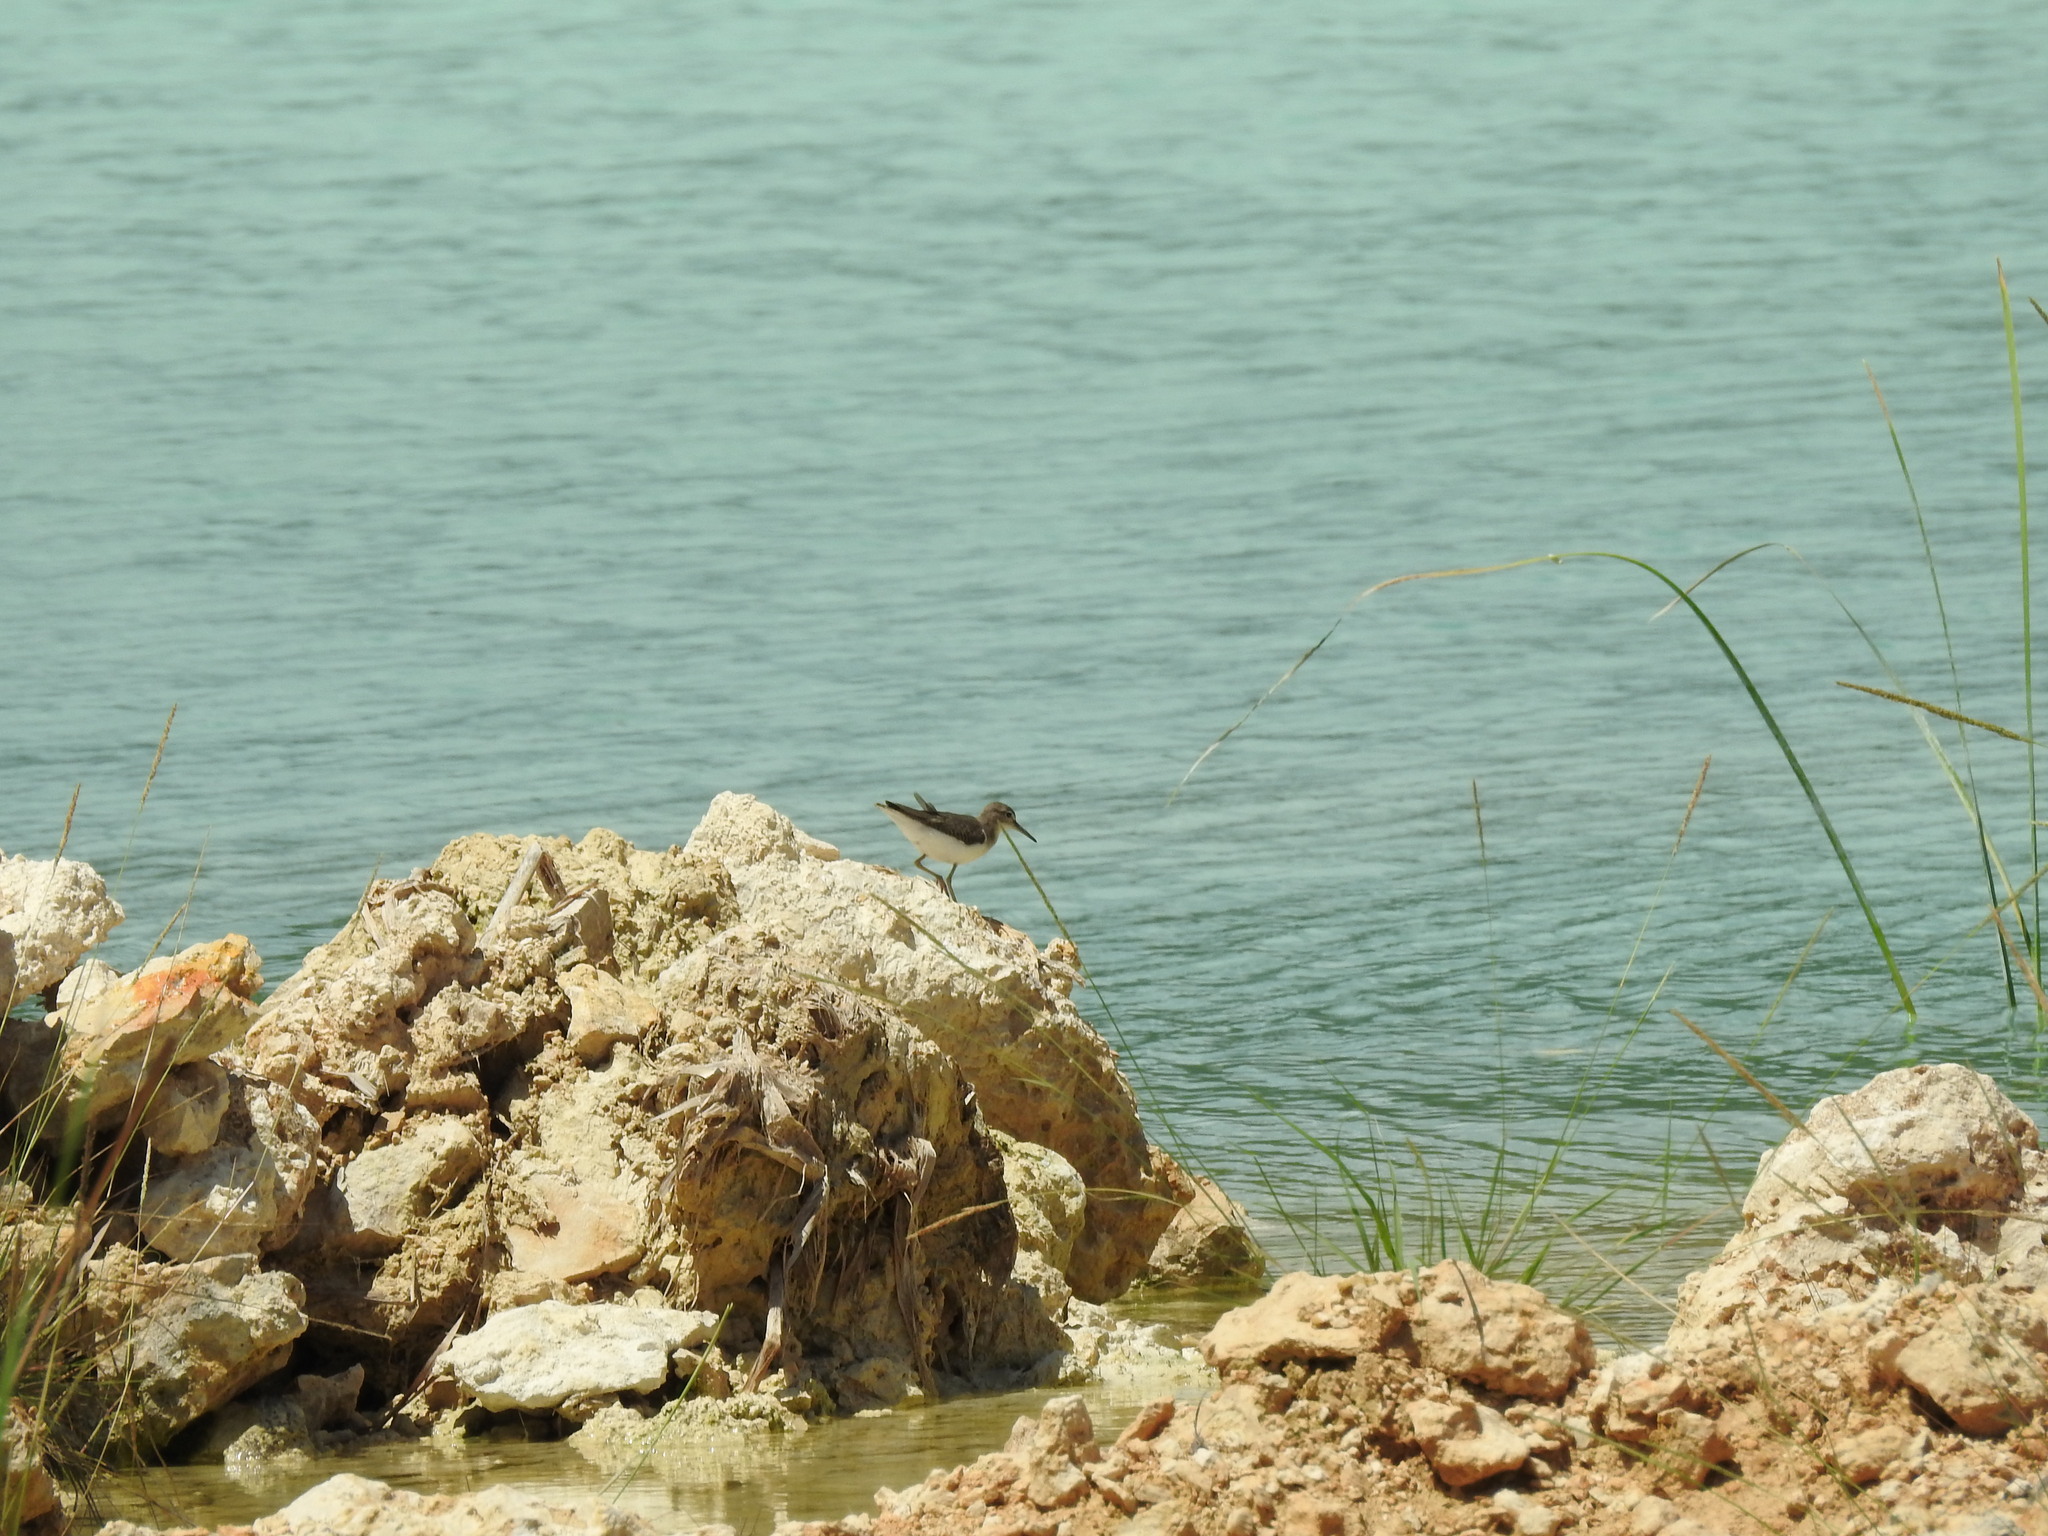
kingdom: Animalia
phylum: Chordata
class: Aves
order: Charadriiformes
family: Scolopacidae
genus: Actitis
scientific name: Actitis macularius
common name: Spotted sandpiper
